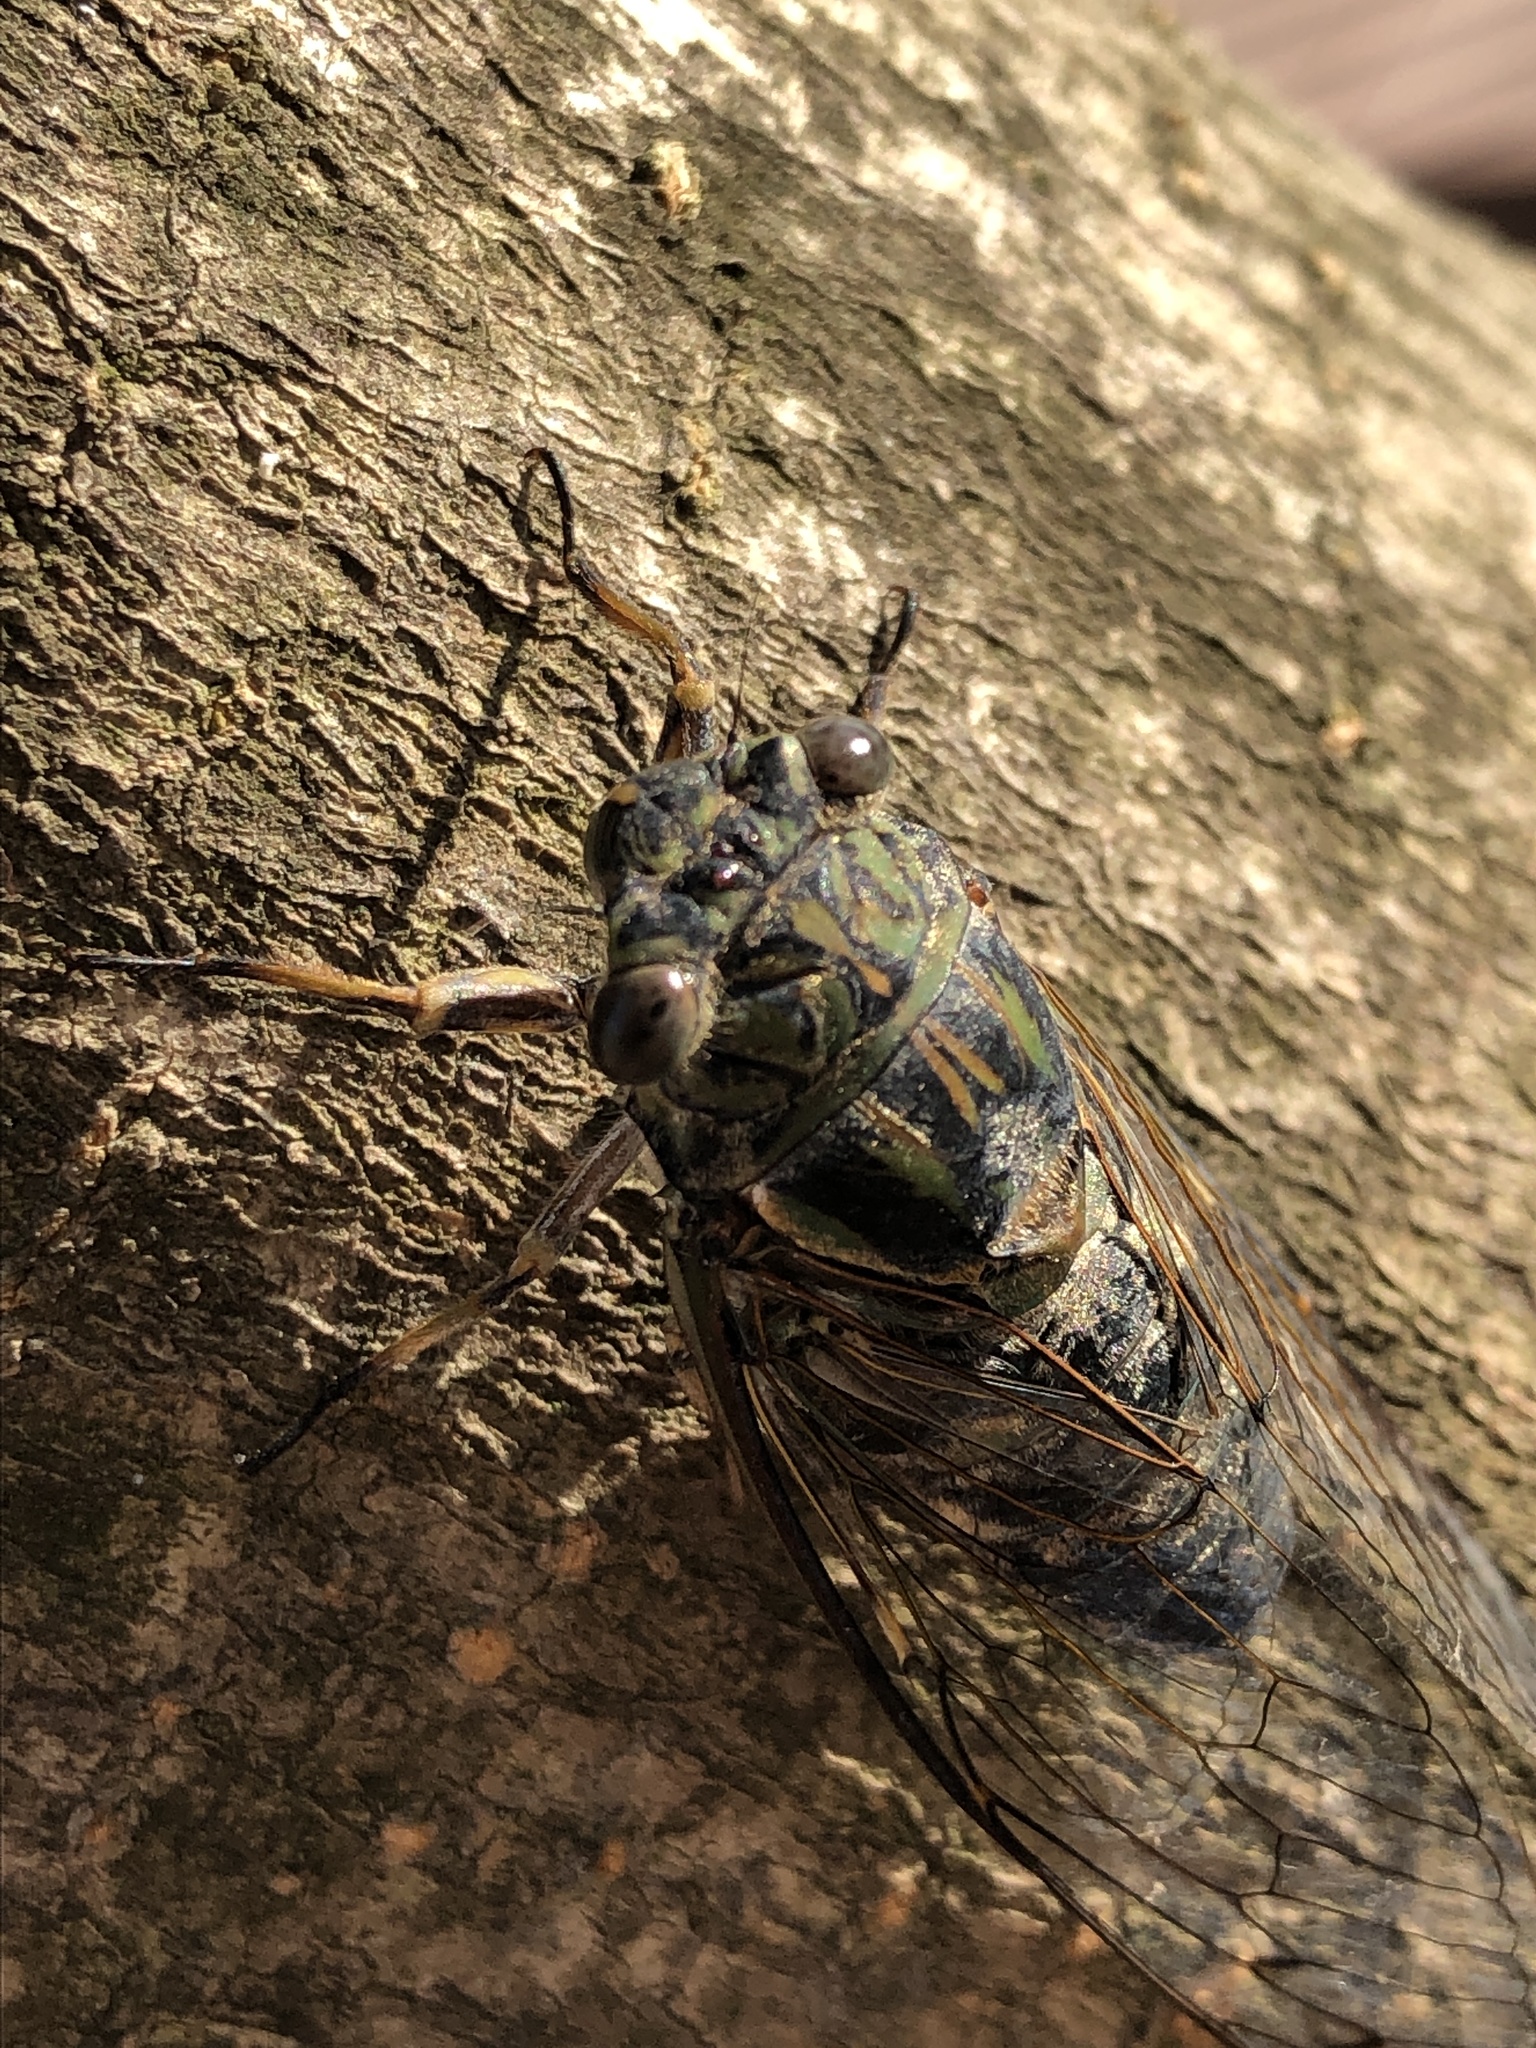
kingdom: Animalia
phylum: Arthropoda
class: Insecta
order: Hemiptera
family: Cicadidae
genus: Meimuna
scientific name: Meimuna opalifera
